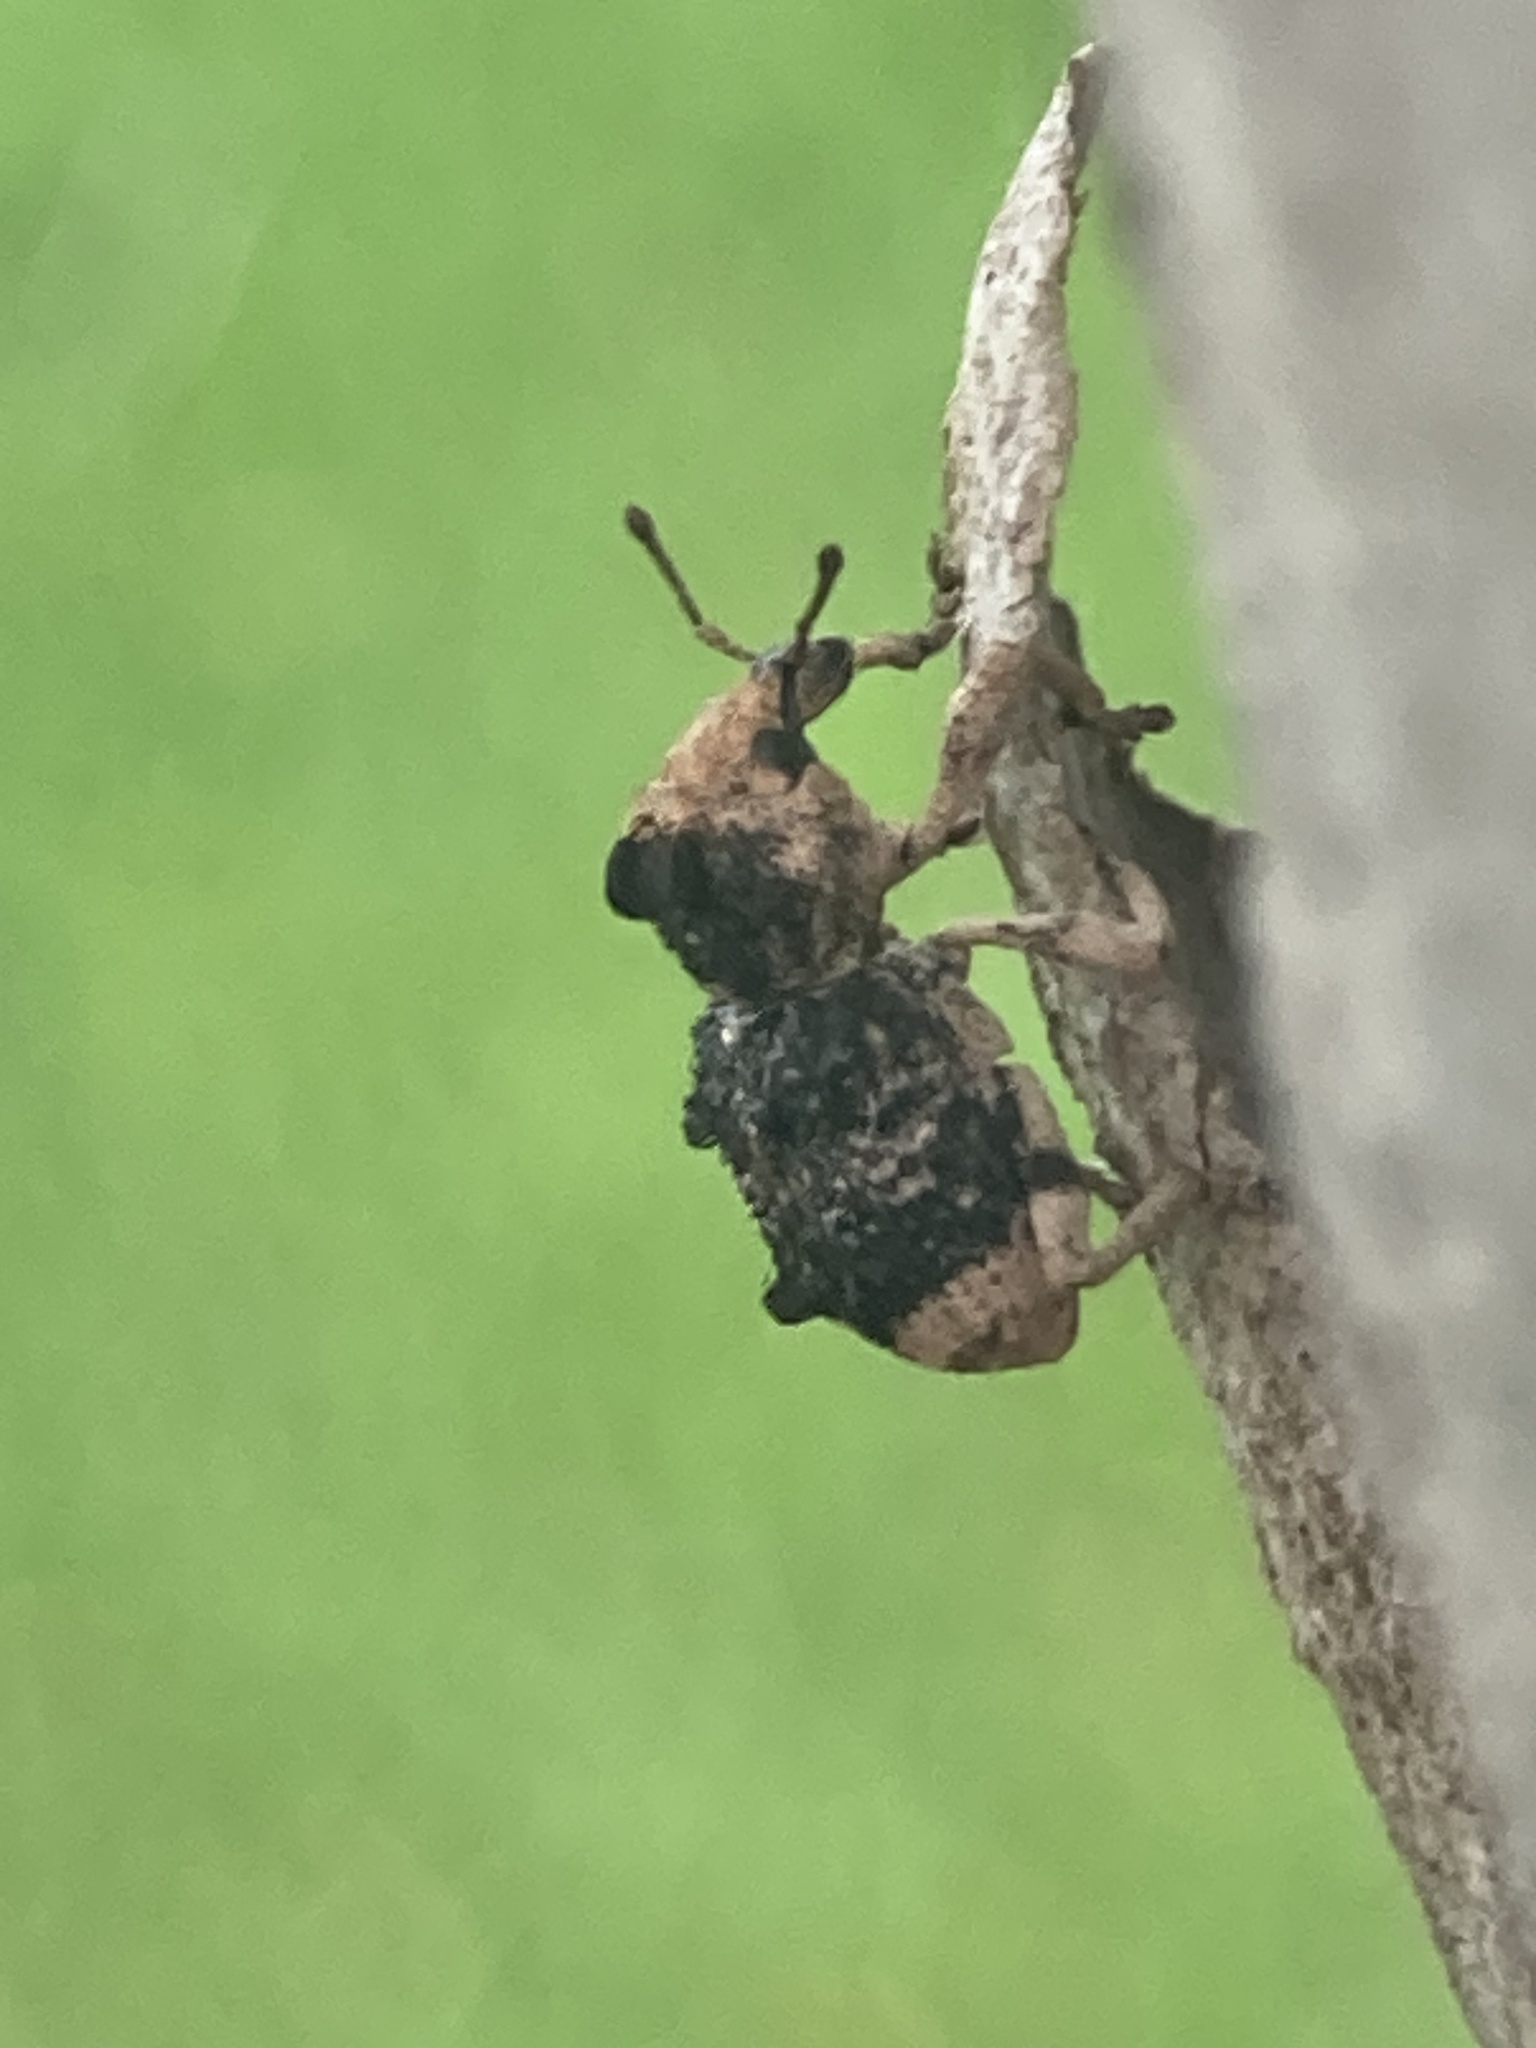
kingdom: Animalia
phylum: Arthropoda
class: Insecta
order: Coleoptera
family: Curculionidae
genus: Aades
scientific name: Aades cultratus
